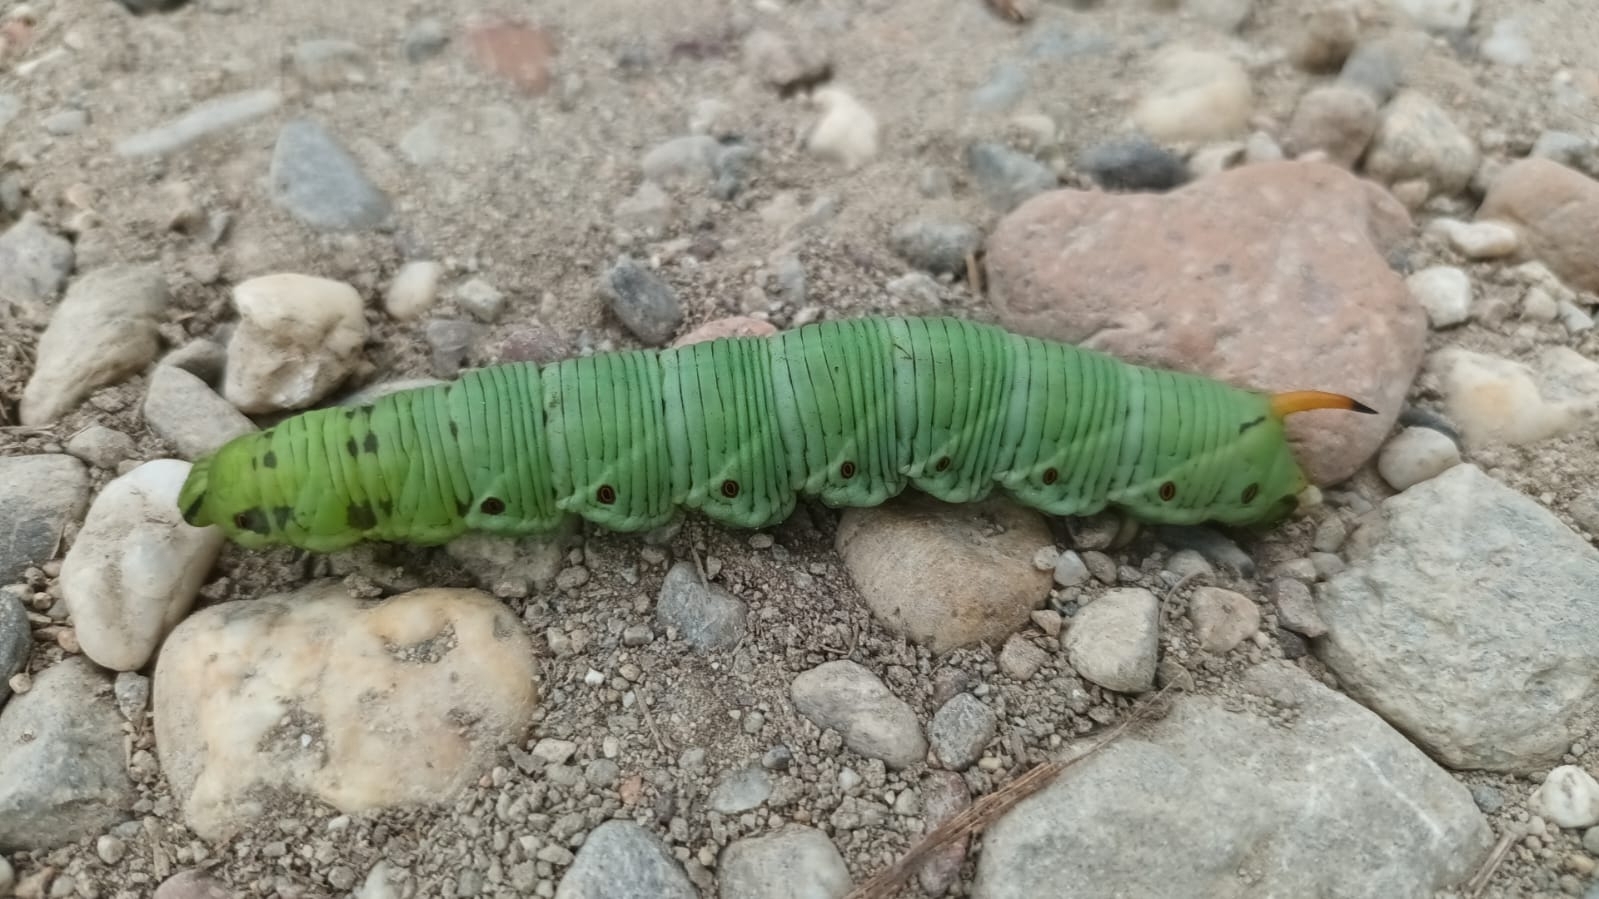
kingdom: Animalia
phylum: Arthropoda
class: Insecta
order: Lepidoptera
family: Sphingidae
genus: Agrius
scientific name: Agrius convolvuli
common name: Convolvulus hawkmoth
